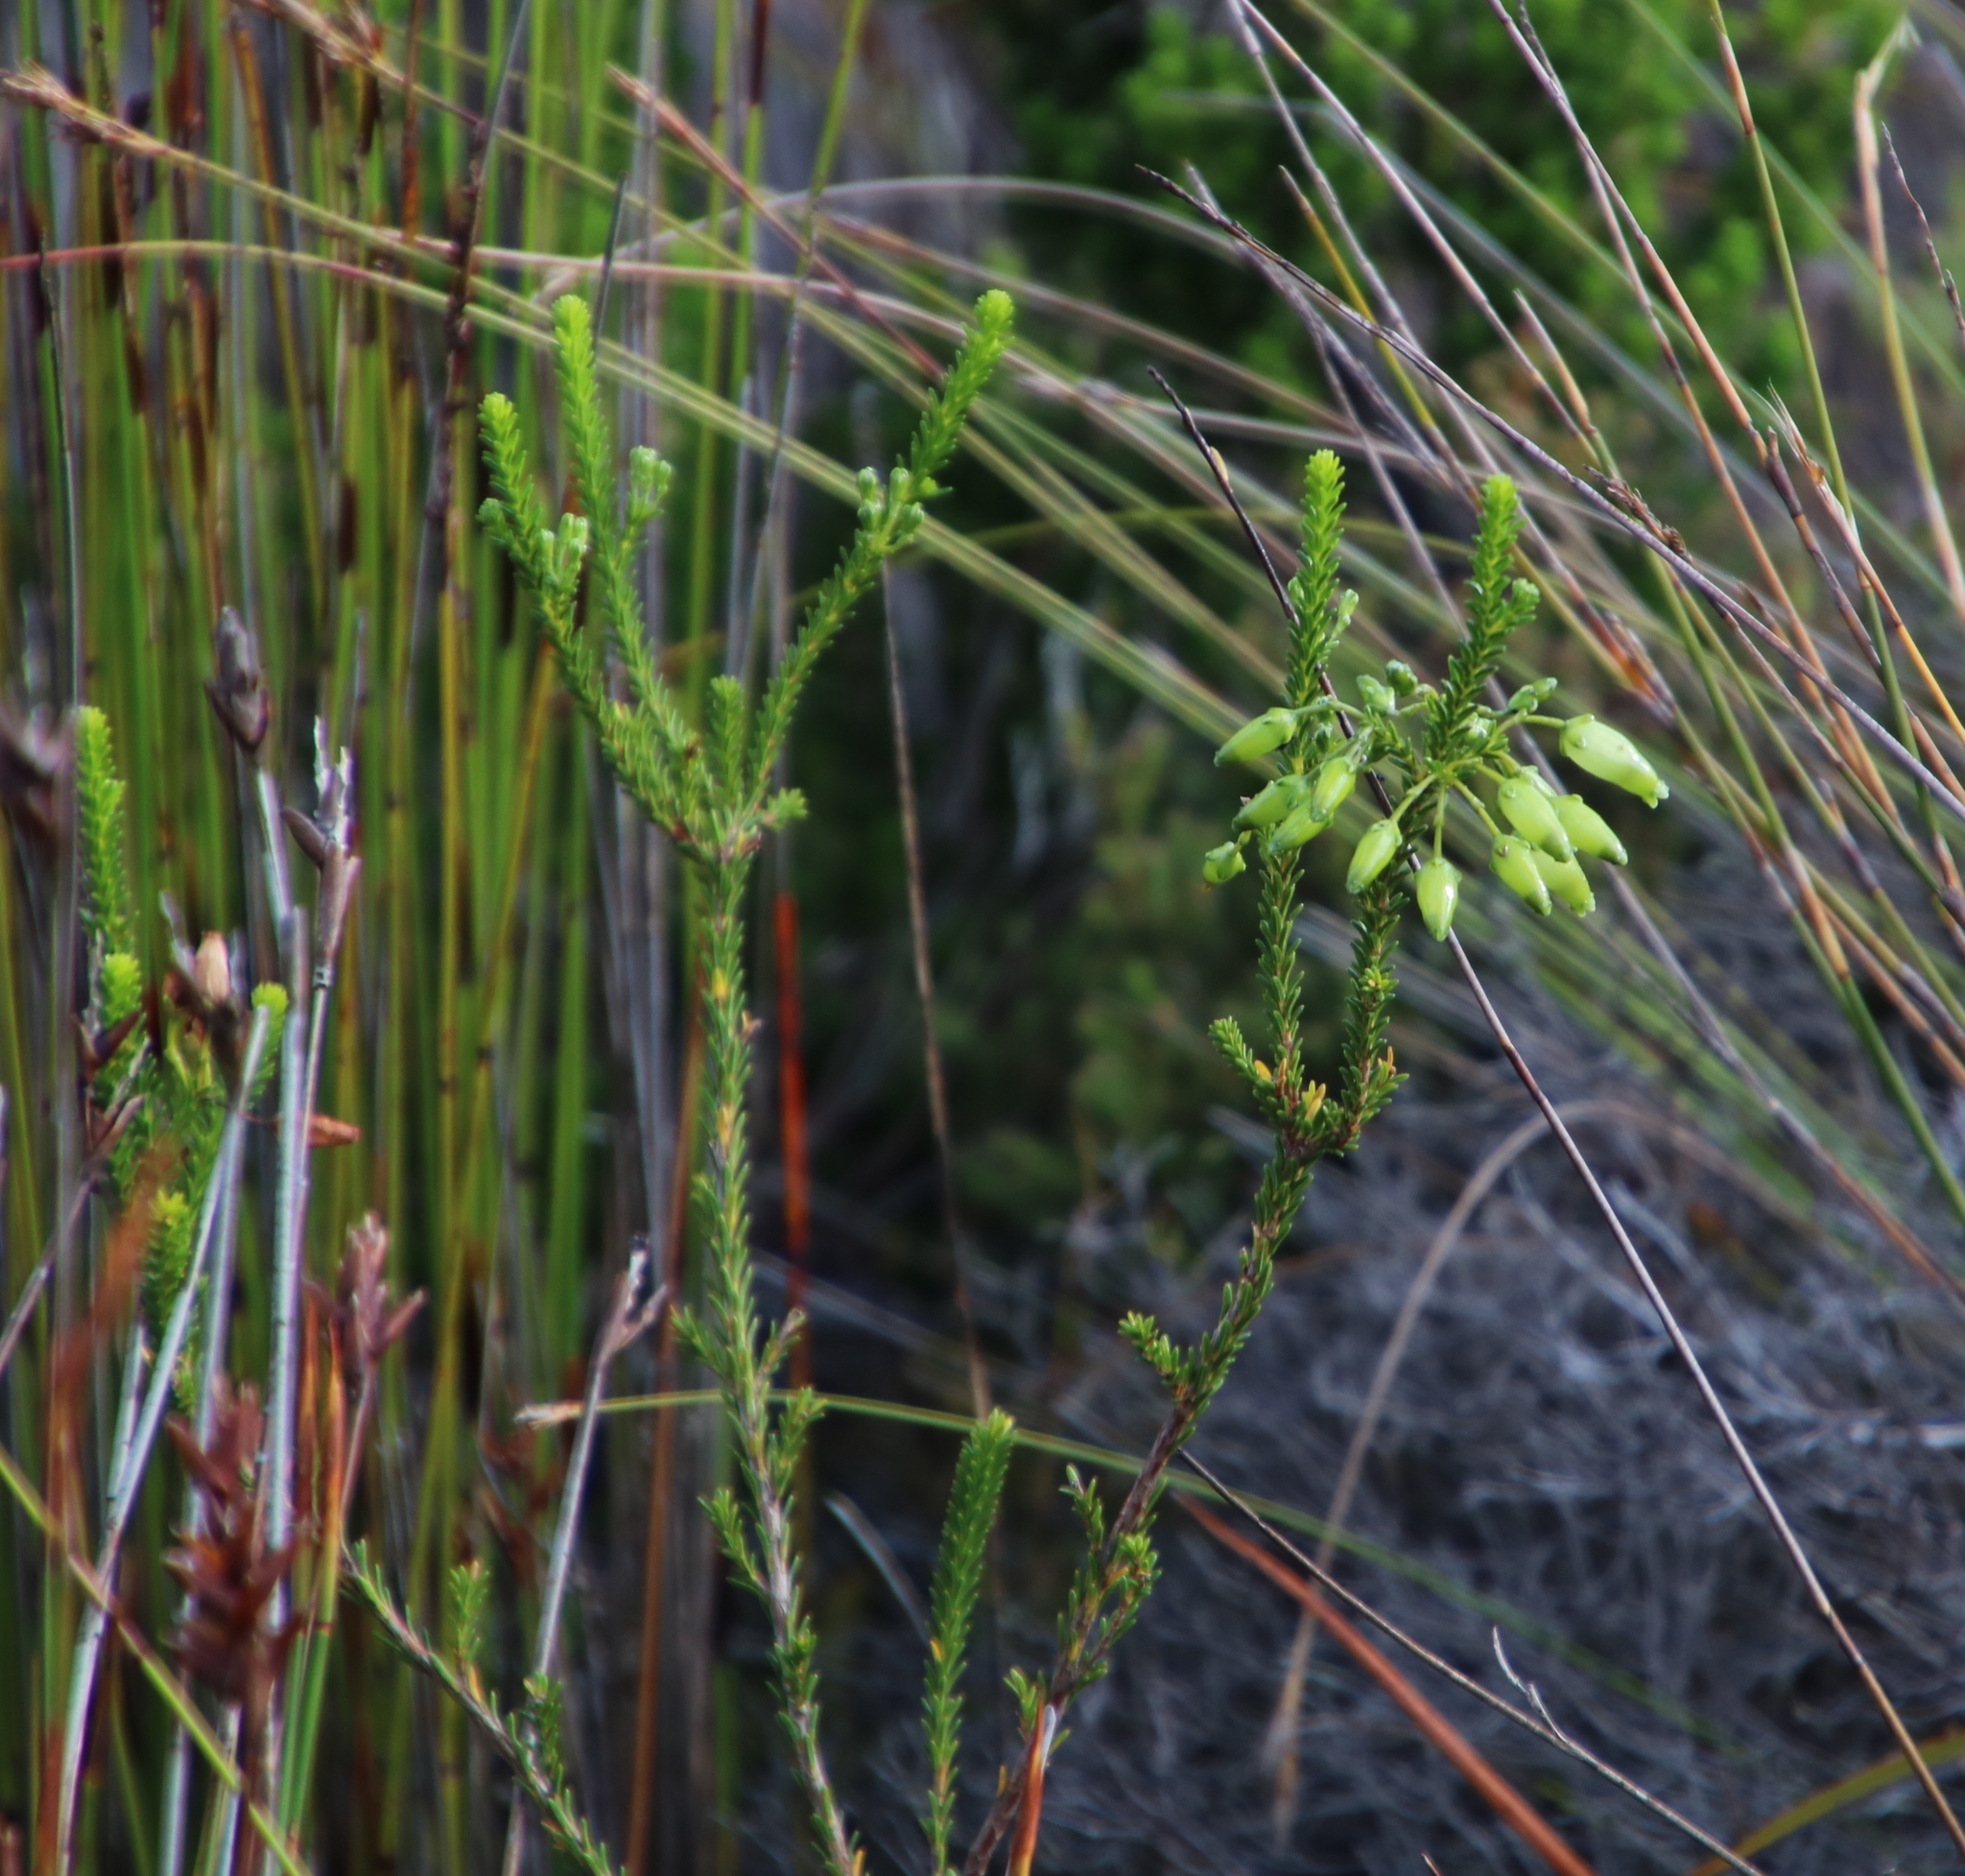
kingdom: Plantae
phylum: Tracheophyta
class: Magnoliopsida
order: Ericales
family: Ericaceae
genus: Erica
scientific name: Erica urna-viridis
